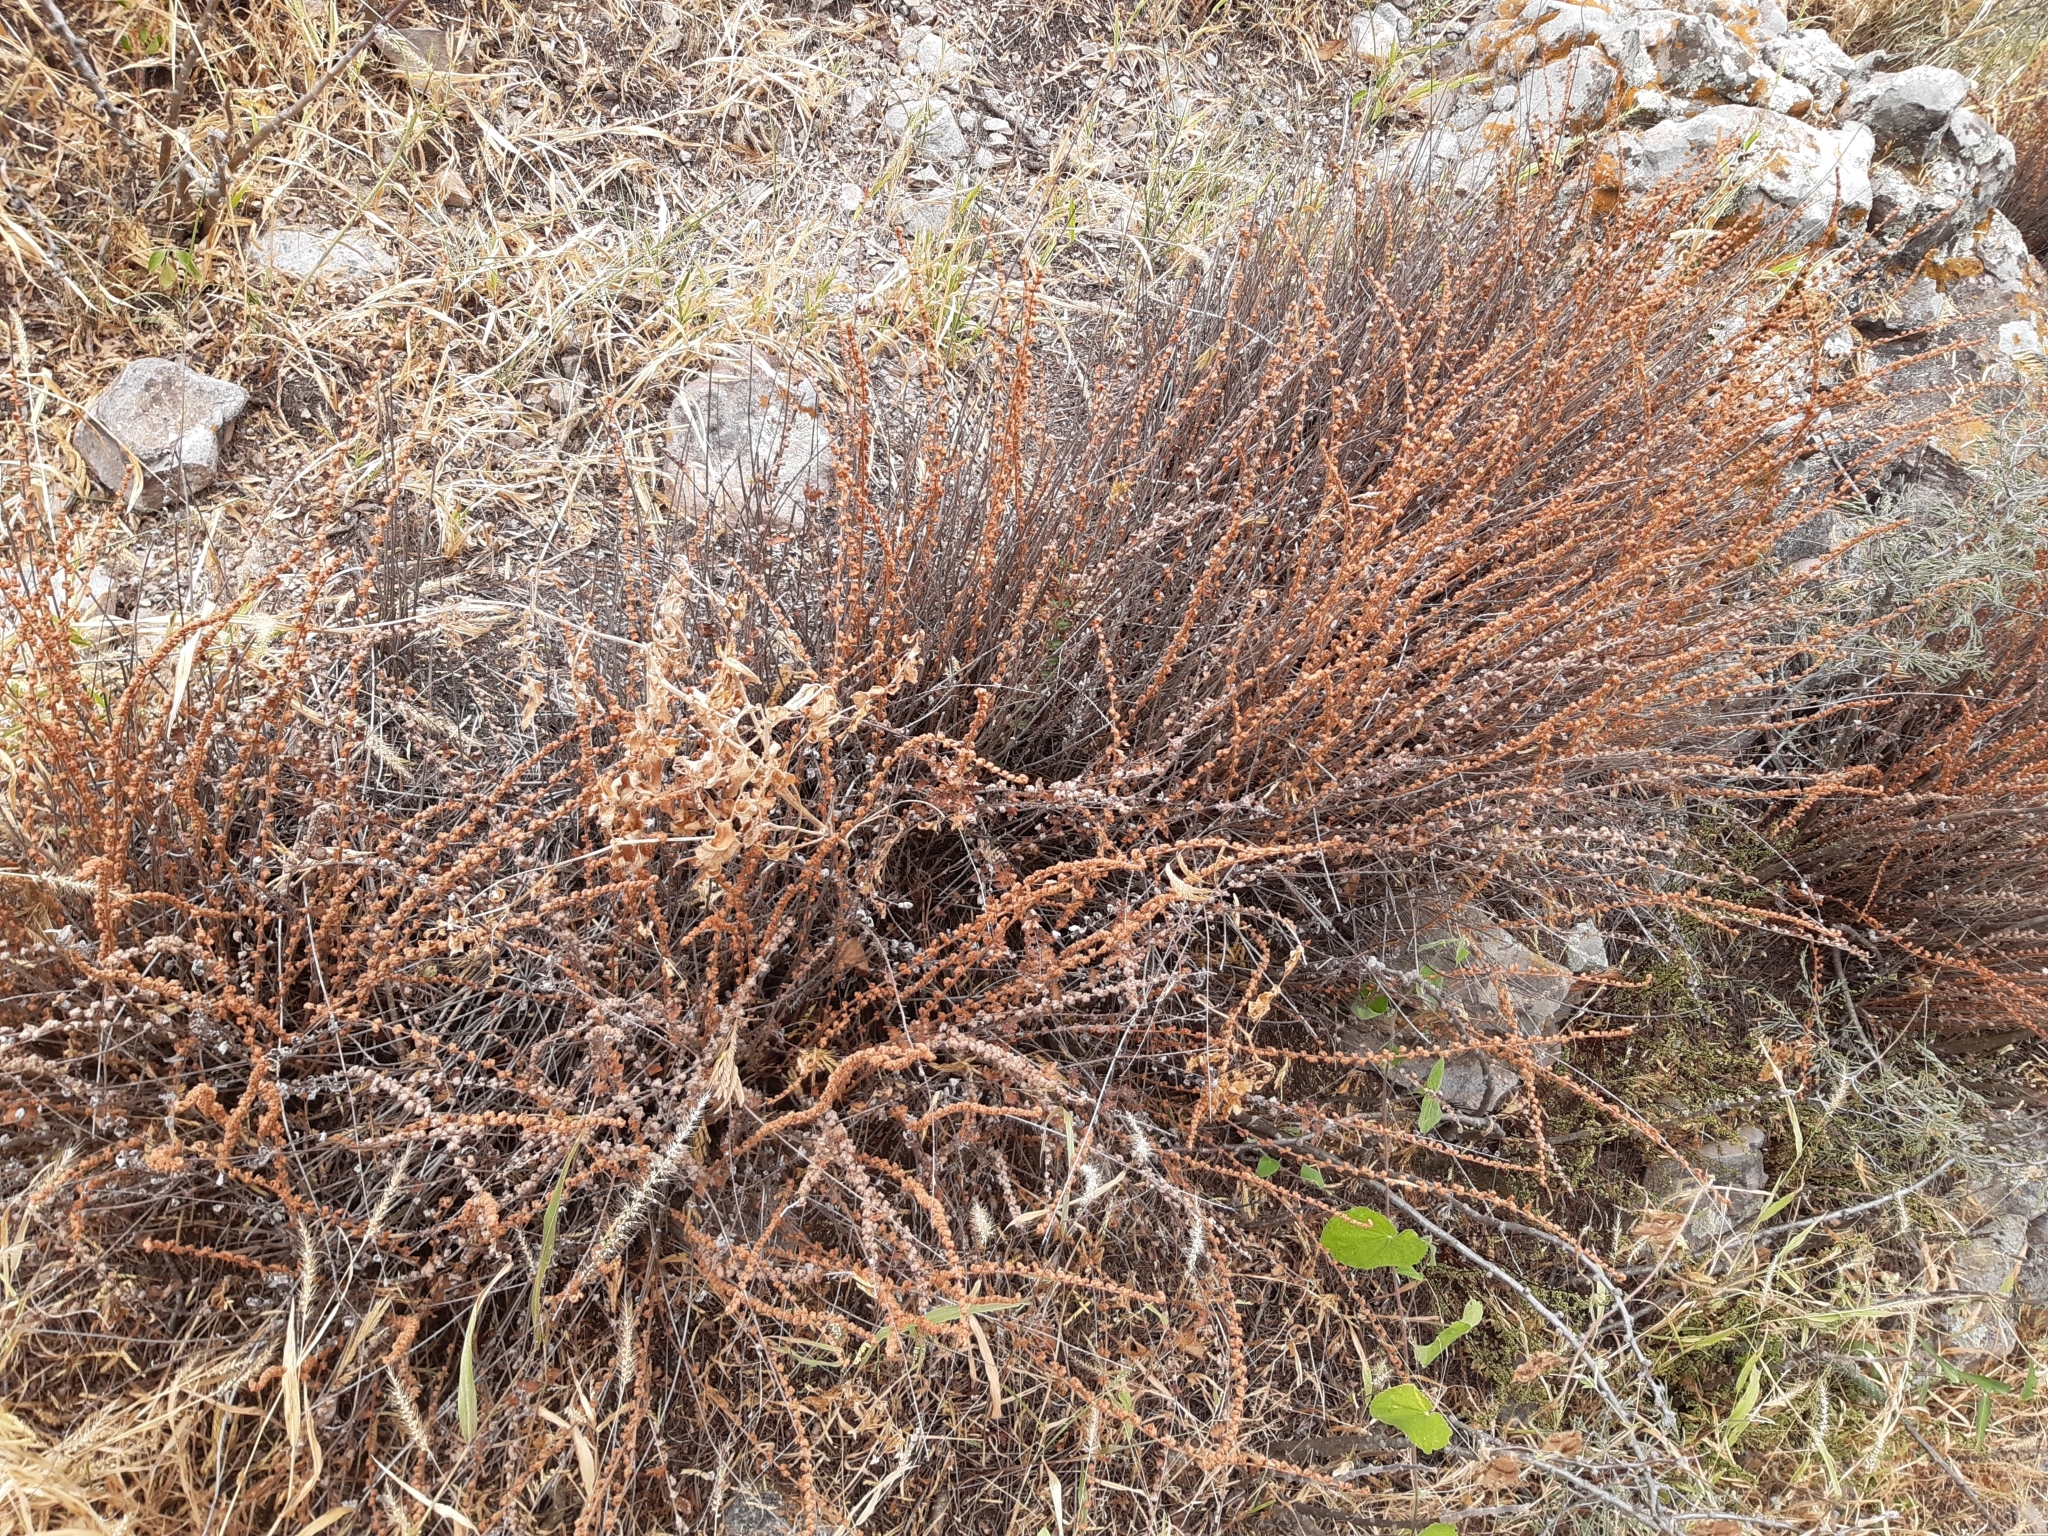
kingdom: Plantae
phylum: Tracheophyta
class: Polypodiopsida
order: Polypodiales
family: Pteridaceae
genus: Astrolepis
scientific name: Astrolepis sinuata
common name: Wavy scaly cloakfern
